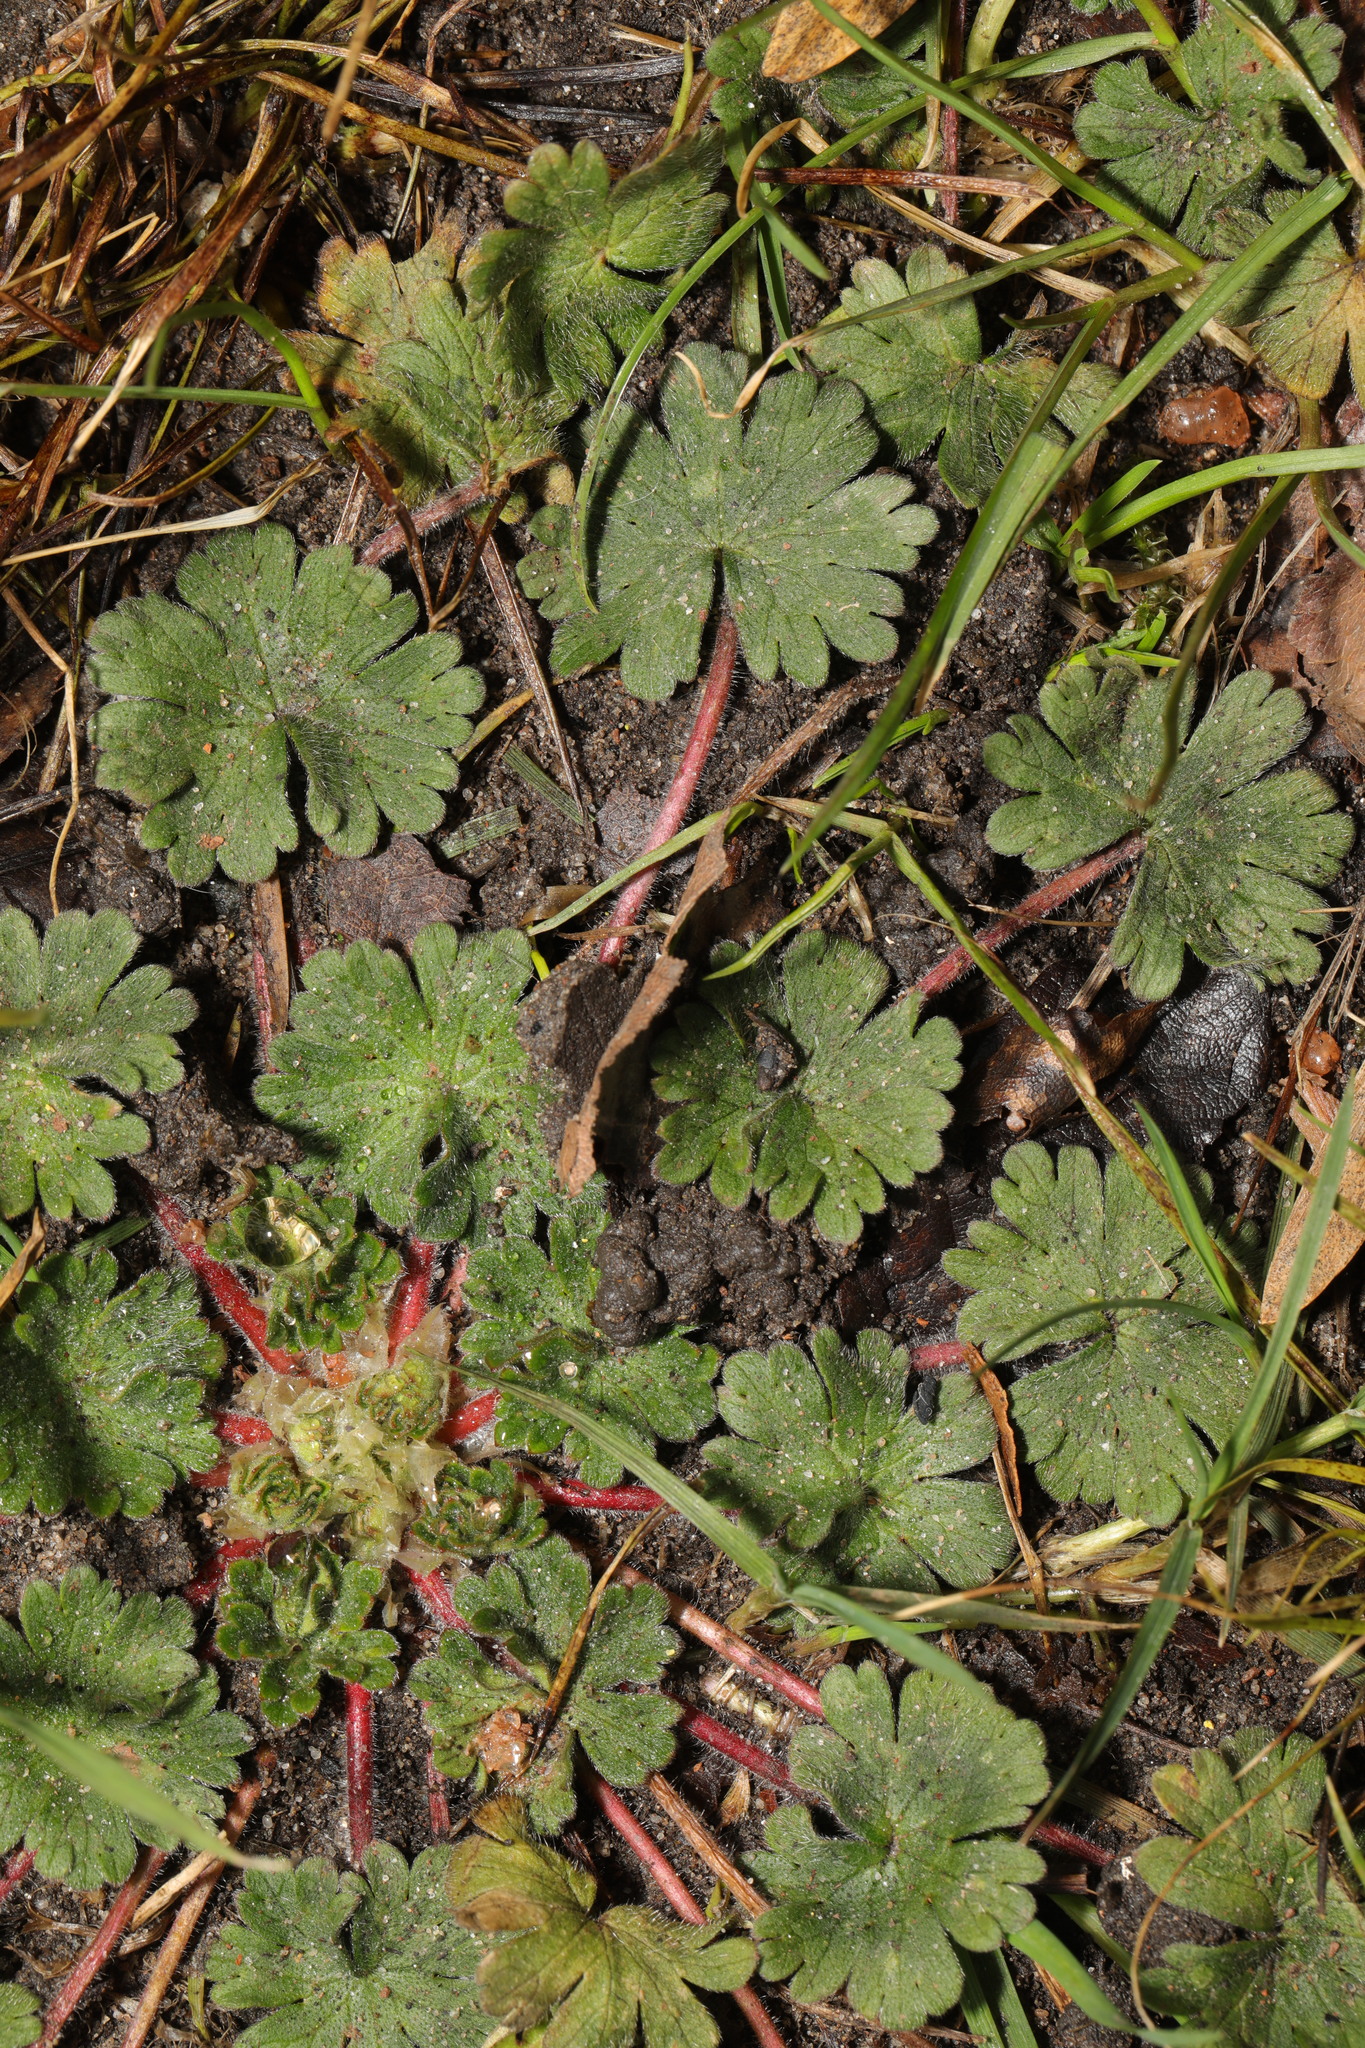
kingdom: Plantae
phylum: Tracheophyta
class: Magnoliopsida
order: Geraniales
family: Geraniaceae
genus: Geranium
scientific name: Geranium molle
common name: Dove's-foot crane's-bill
